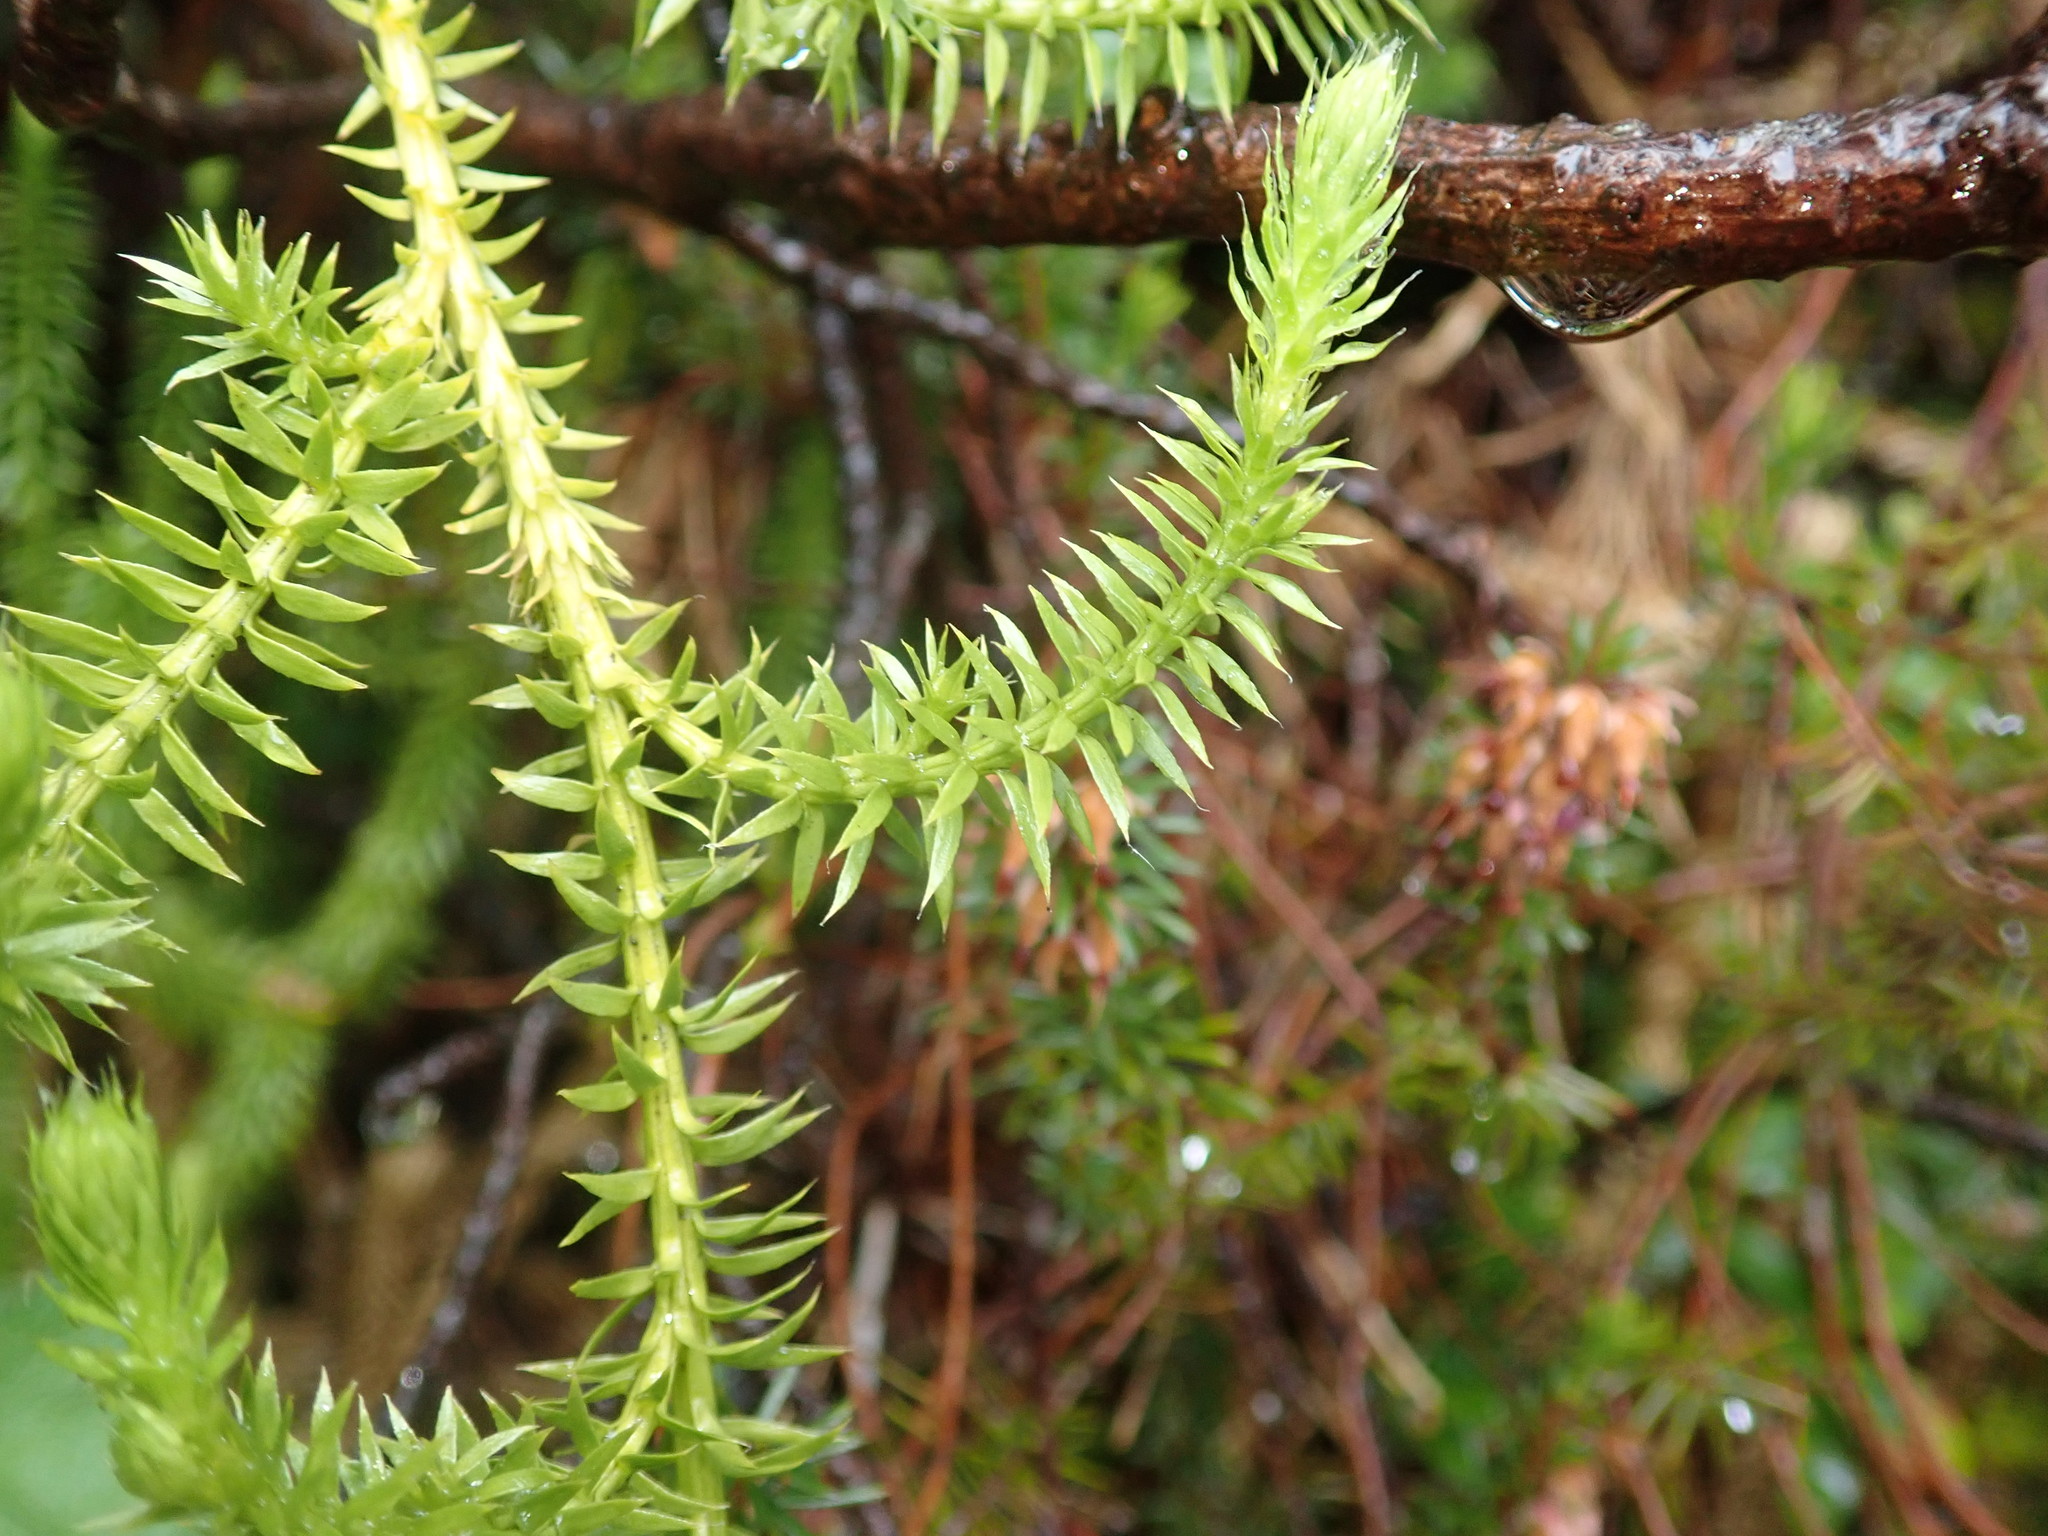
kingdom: Plantae
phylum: Tracheophyta
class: Lycopodiopsida
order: Lycopodiales
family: Lycopodiaceae
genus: Spinulum
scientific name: Spinulum annotinum
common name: Interrupted club-moss
